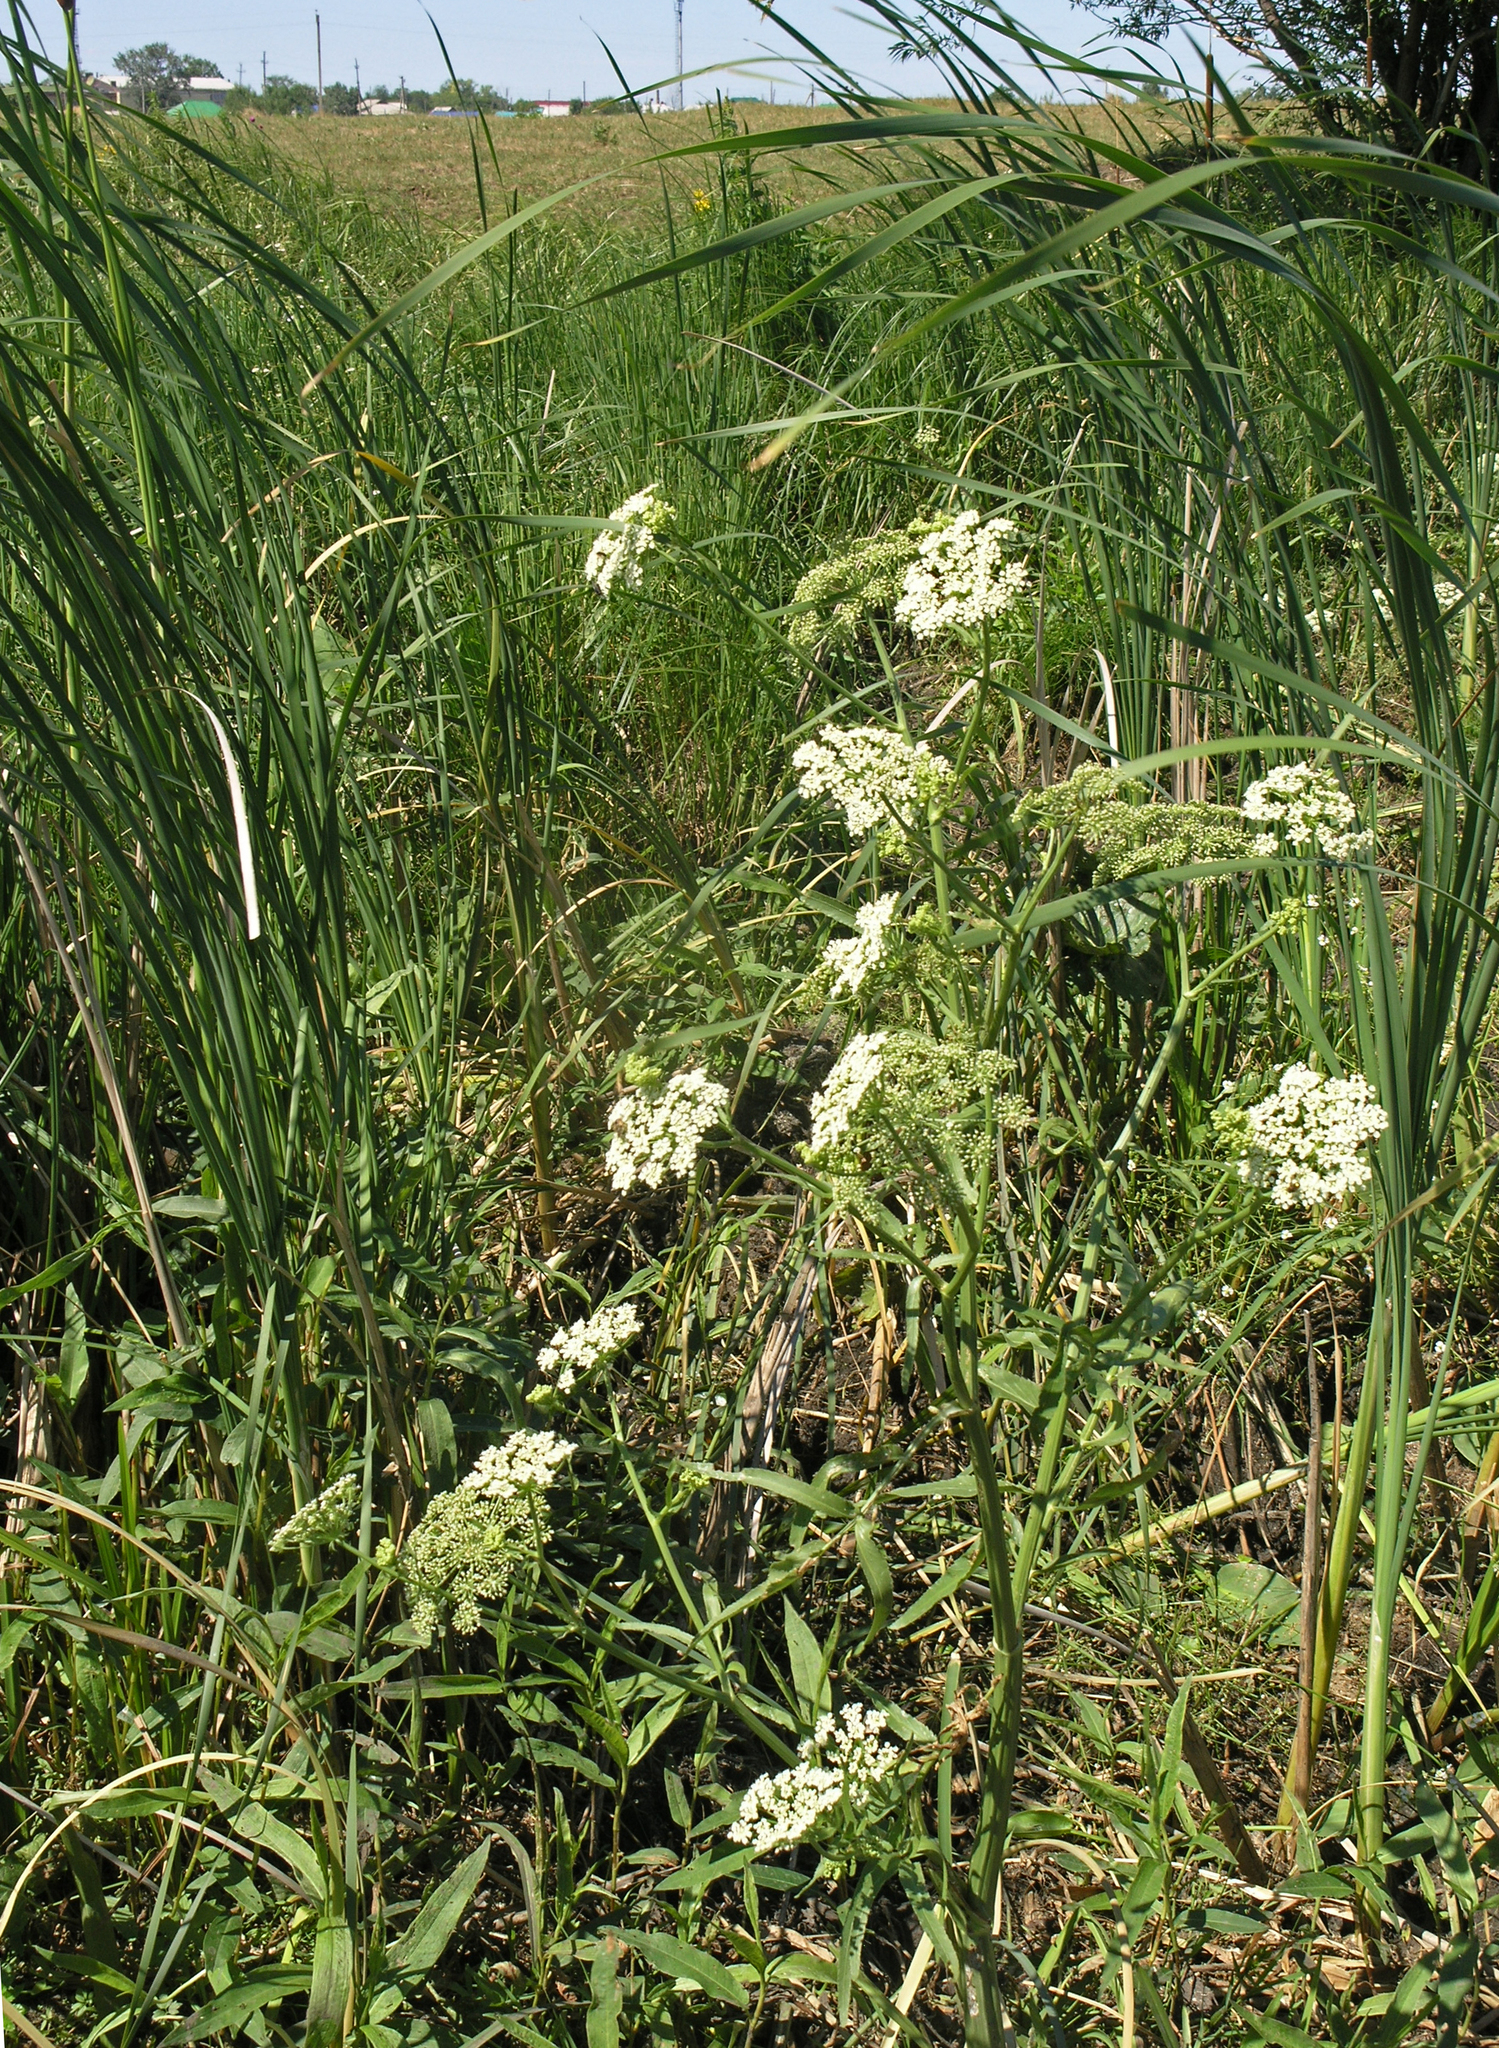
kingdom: Plantae
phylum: Tracheophyta
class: Magnoliopsida
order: Apiales
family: Apiaceae
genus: Sium
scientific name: Sium latifolium
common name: Greater water-parsnip
